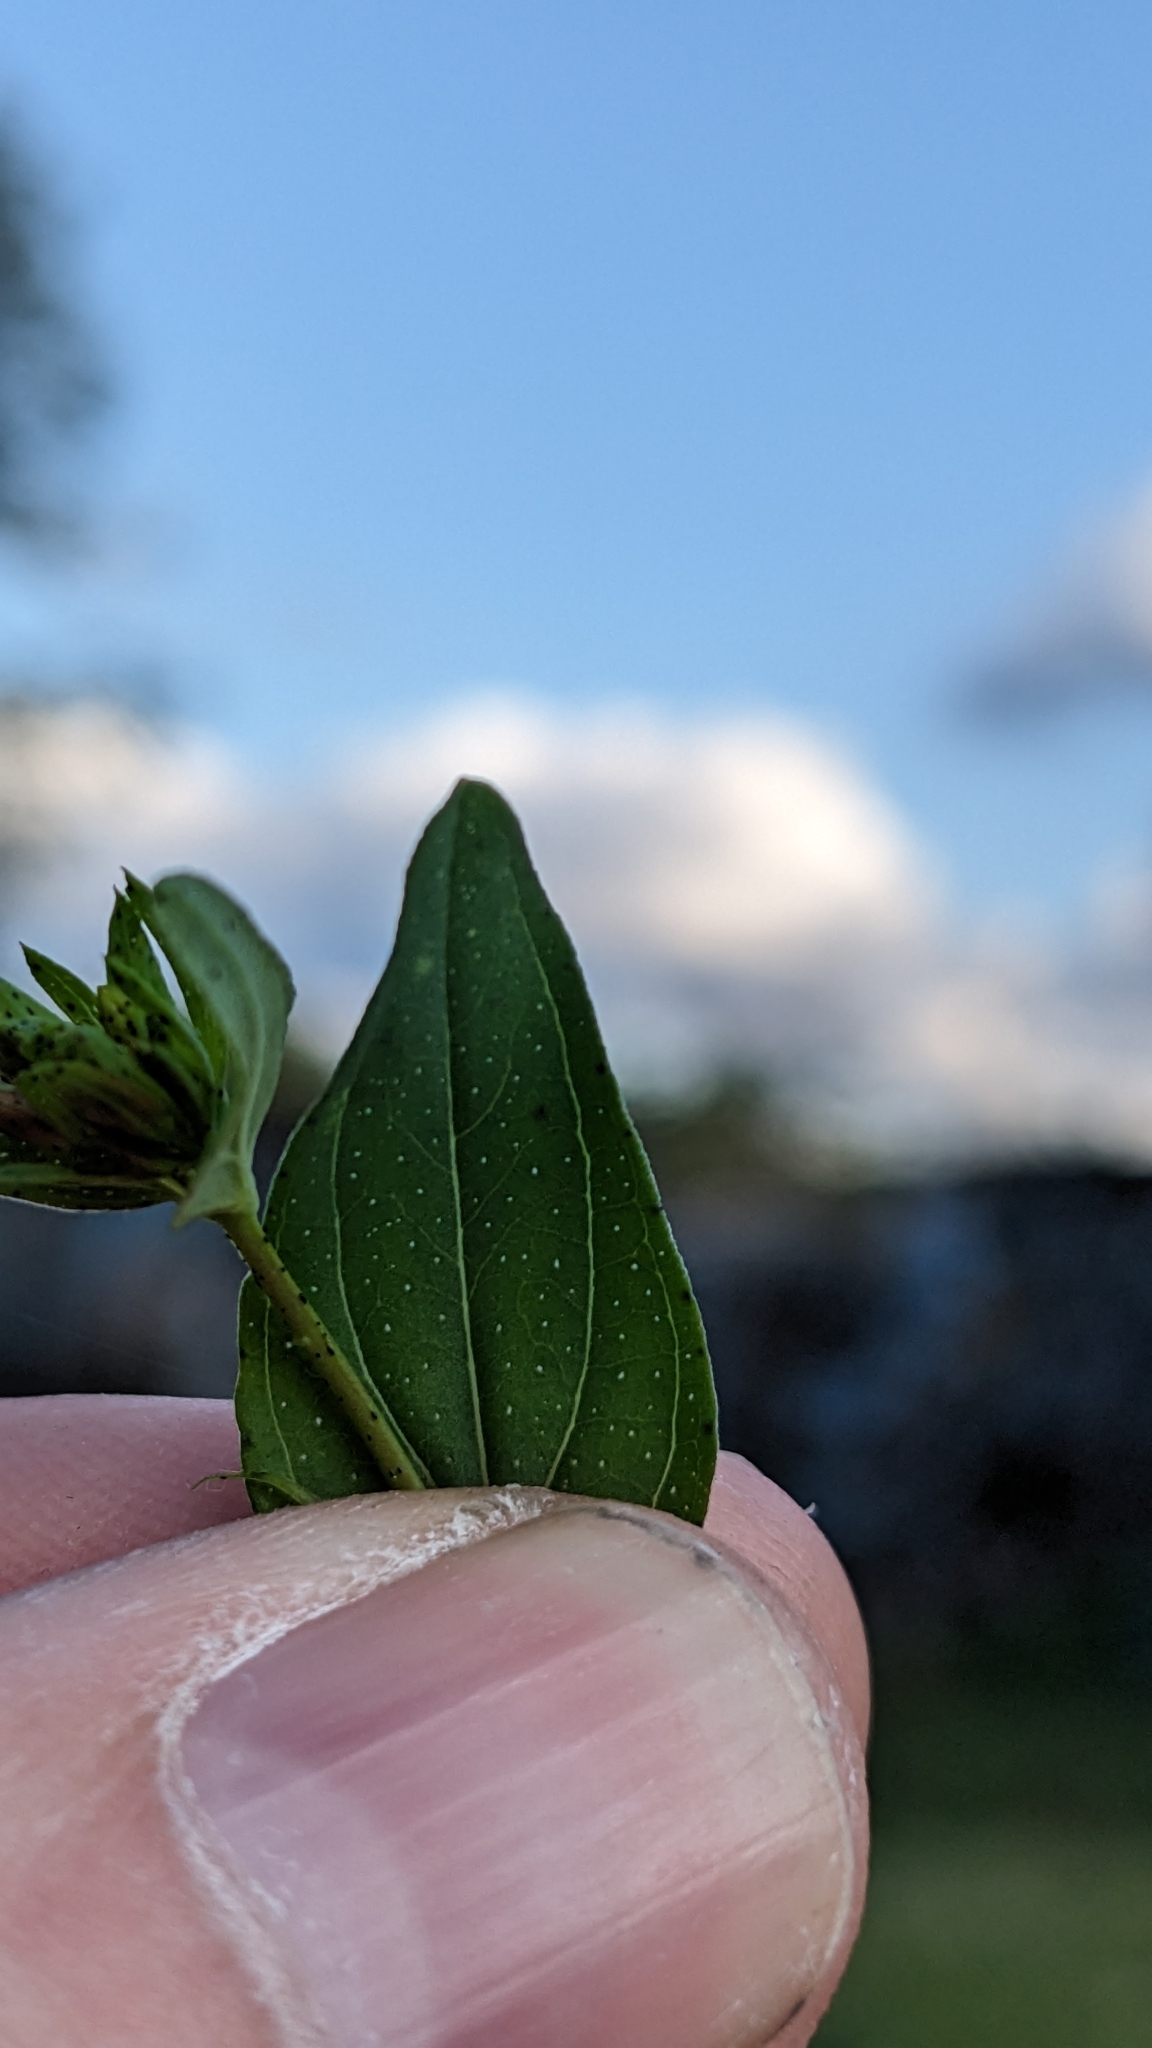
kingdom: Plantae
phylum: Tracheophyta
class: Magnoliopsida
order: Malpighiales
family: Hypericaceae
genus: Hypericum
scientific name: Hypericum perforatum
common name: Common st. johnswort
